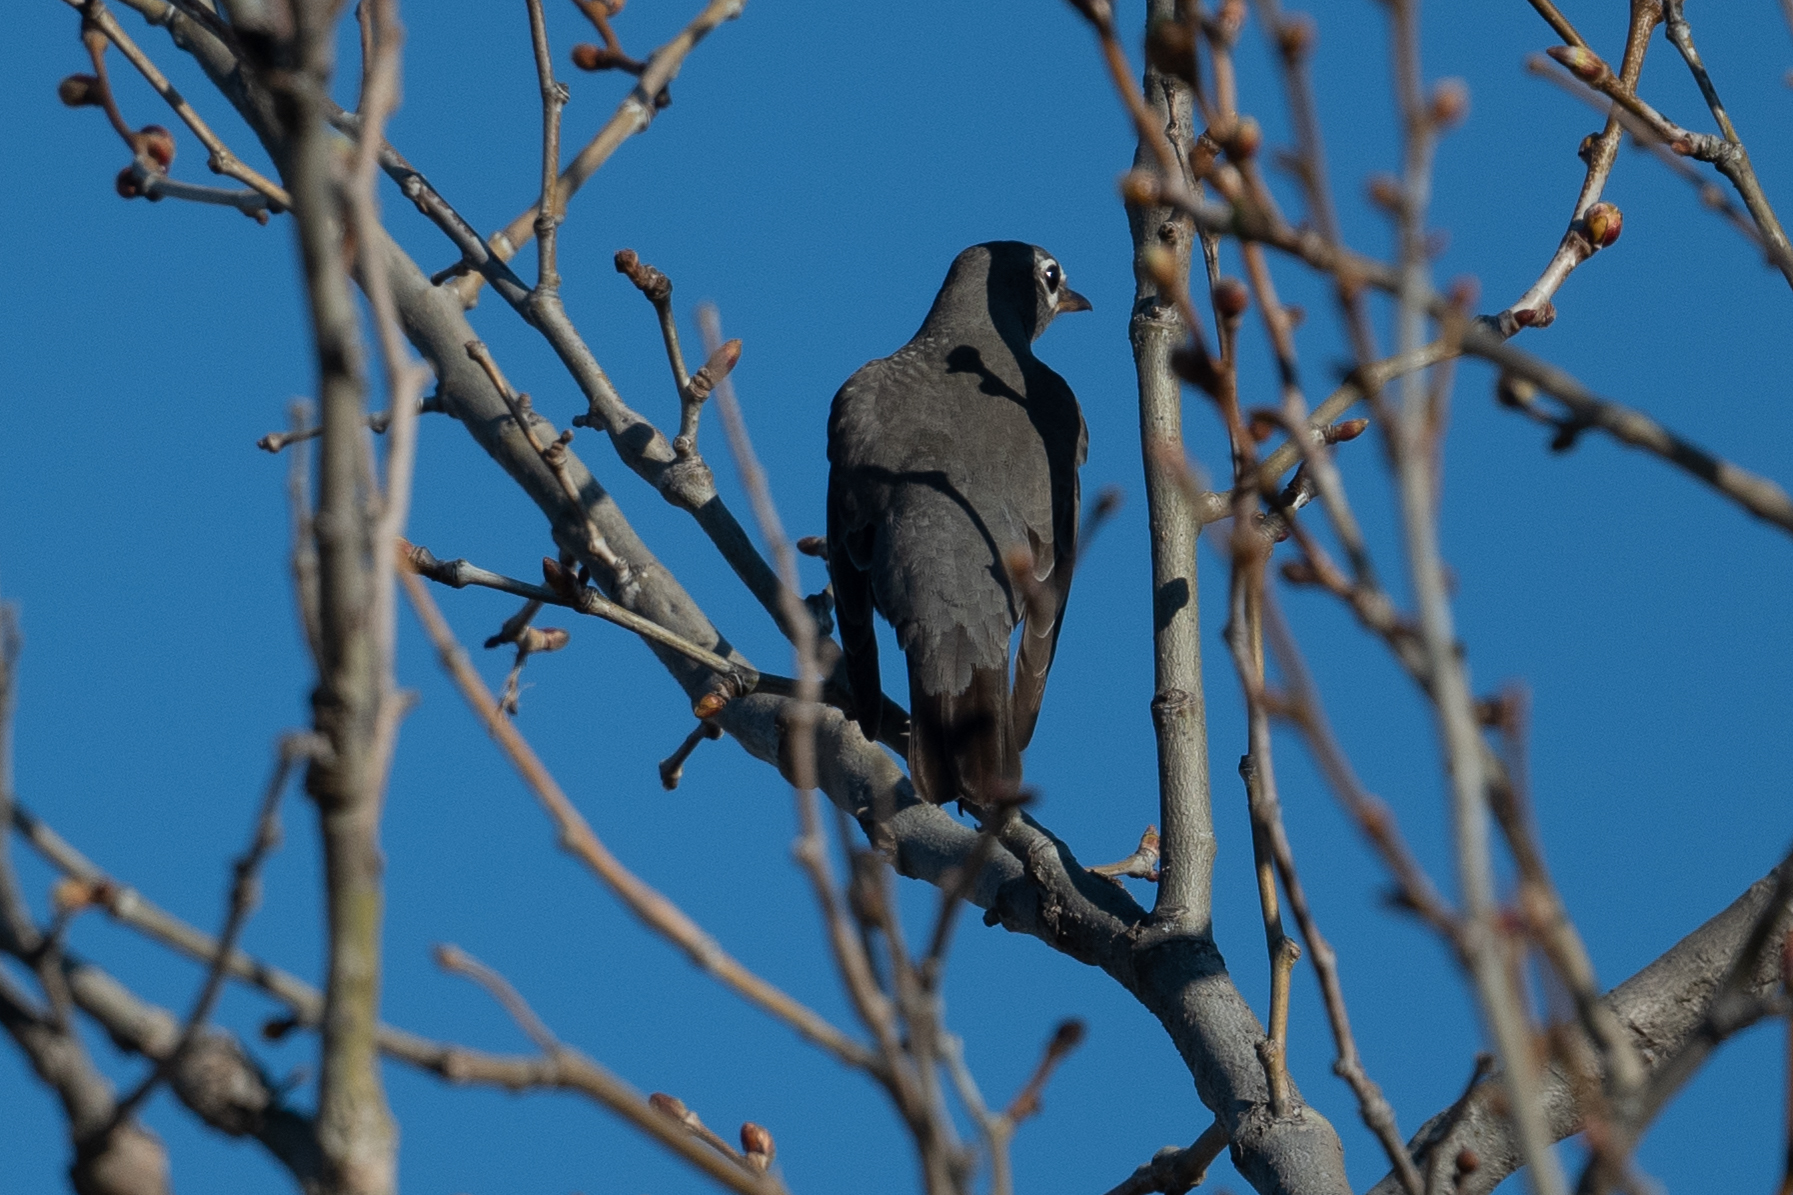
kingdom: Animalia
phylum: Chordata
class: Aves
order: Passeriformes
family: Turdidae
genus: Turdus
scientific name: Turdus migratorius
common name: American robin
